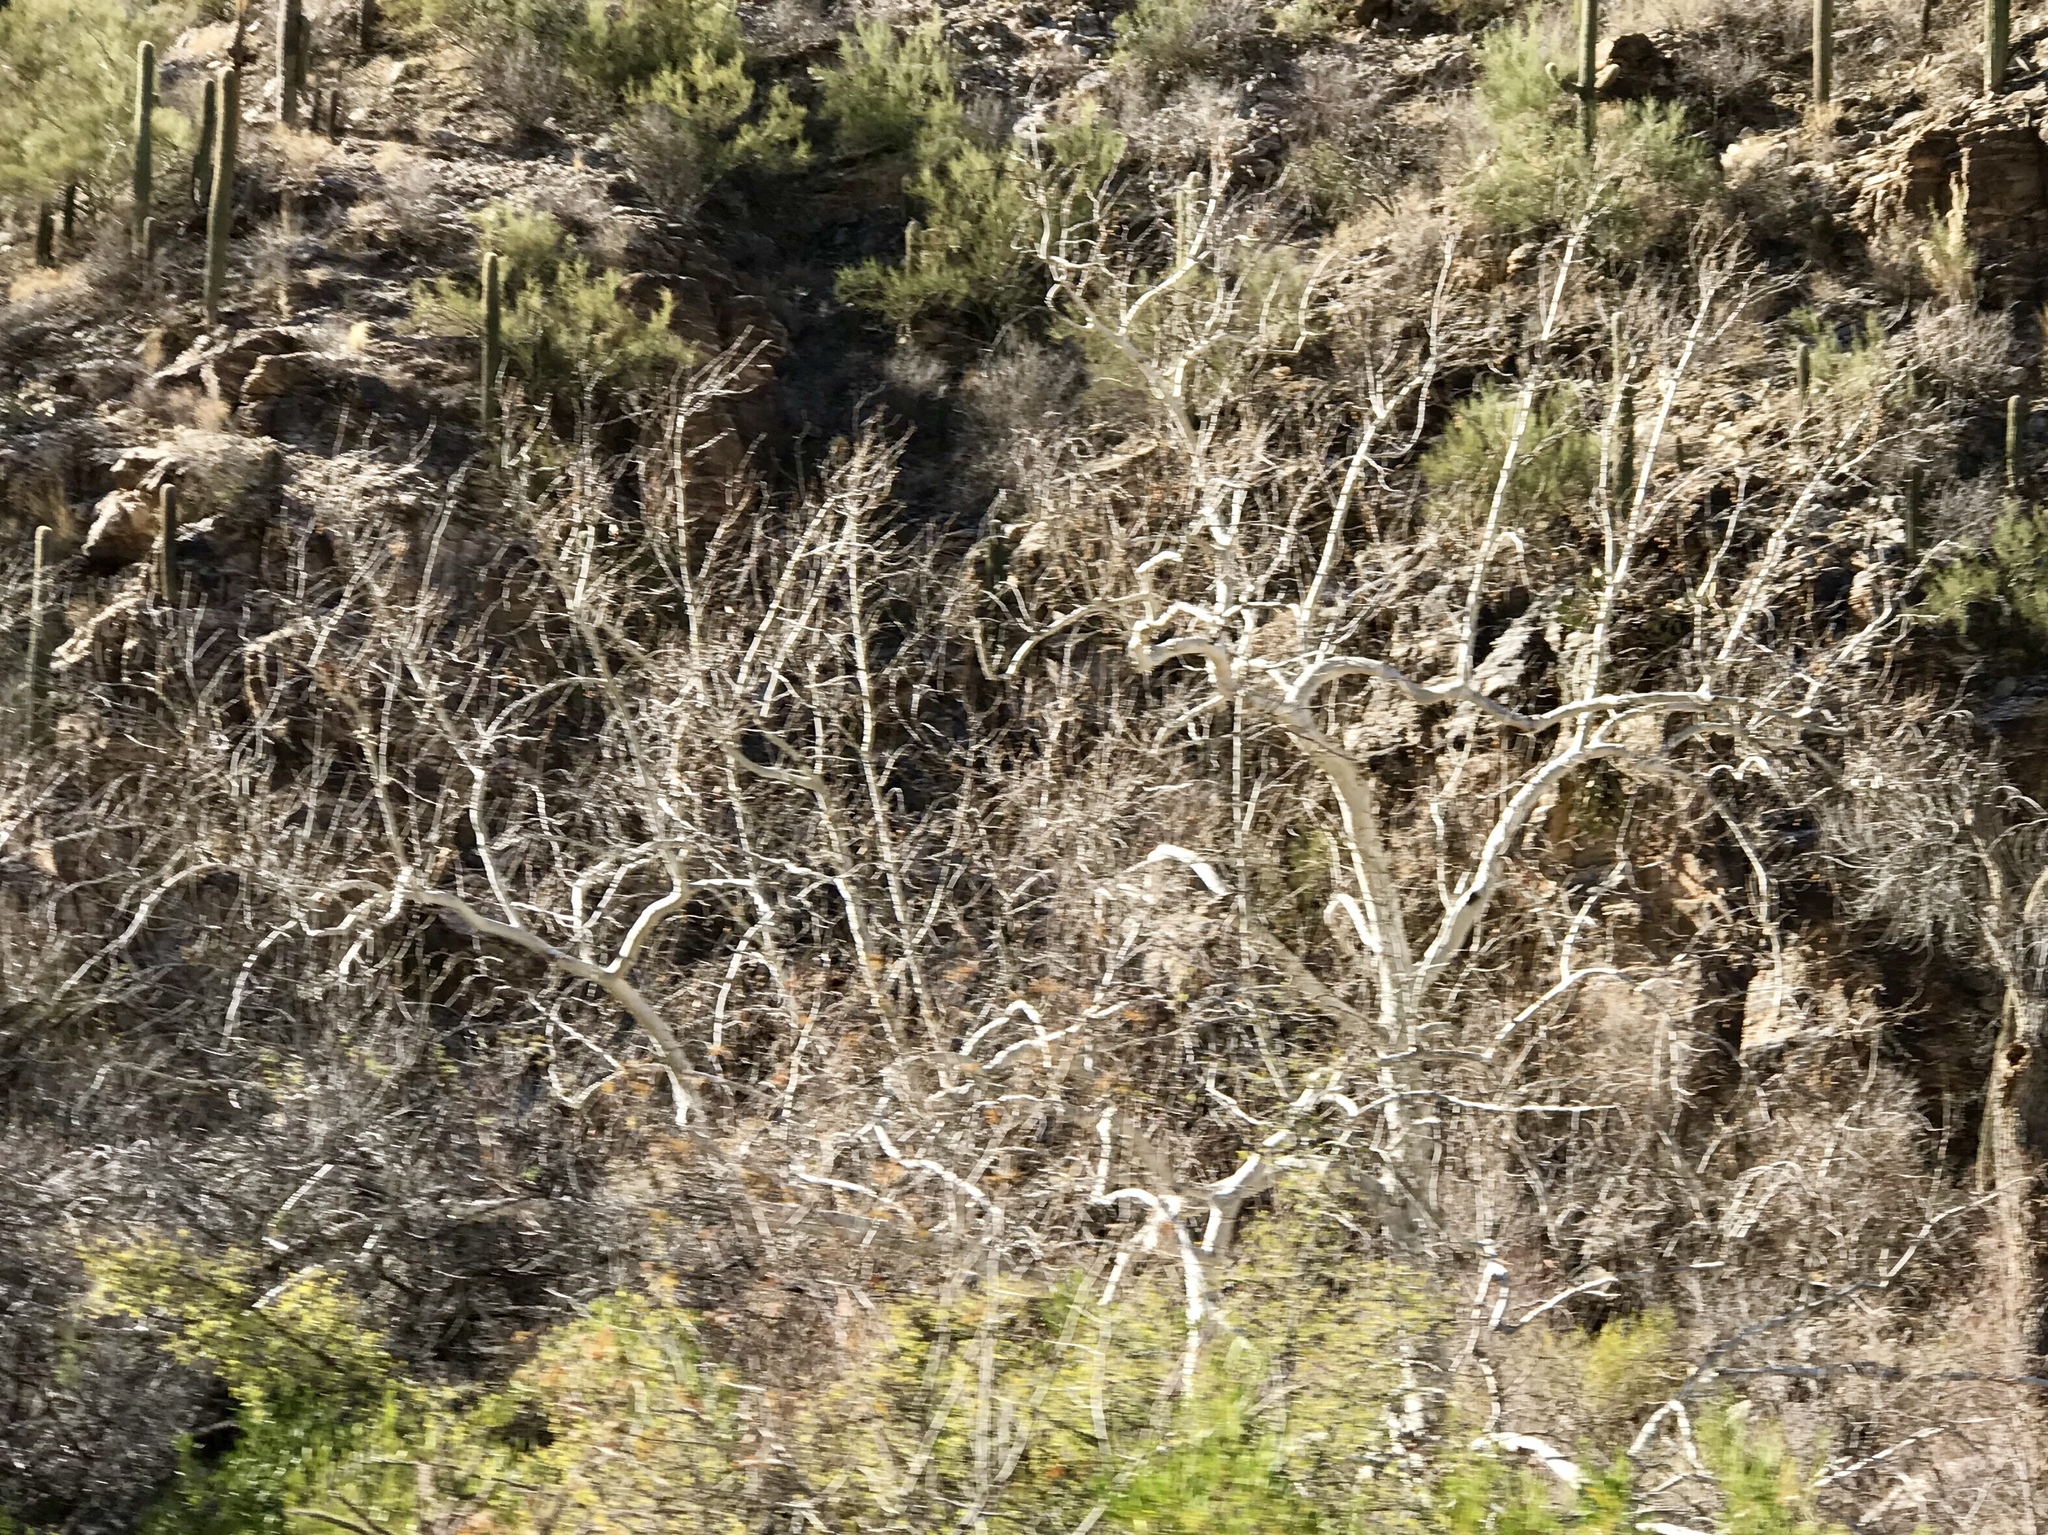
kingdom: Plantae
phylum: Tracheophyta
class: Magnoliopsida
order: Proteales
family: Platanaceae
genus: Platanus
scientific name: Platanus wrightii
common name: Arizona sycamore
